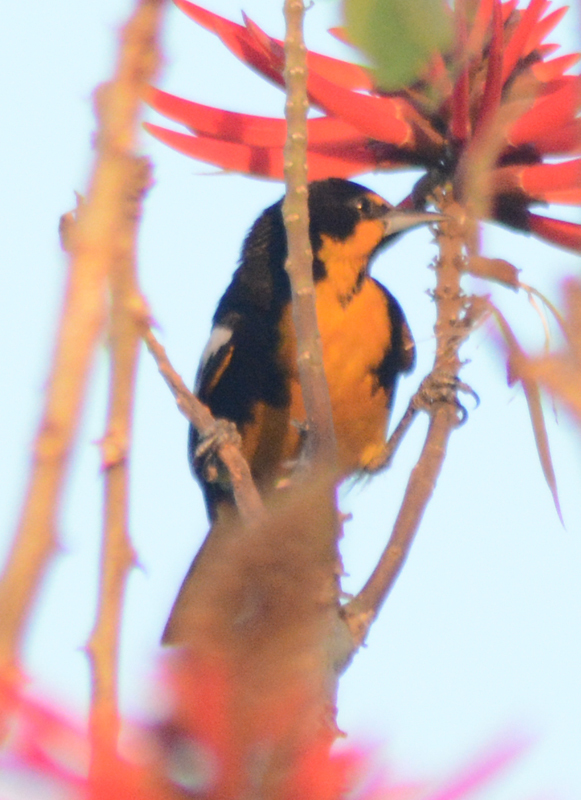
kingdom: Animalia
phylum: Chordata
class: Aves
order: Passeriformes
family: Icteridae
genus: Icterus
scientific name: Icterus abeillei
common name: Black-backed oriole
